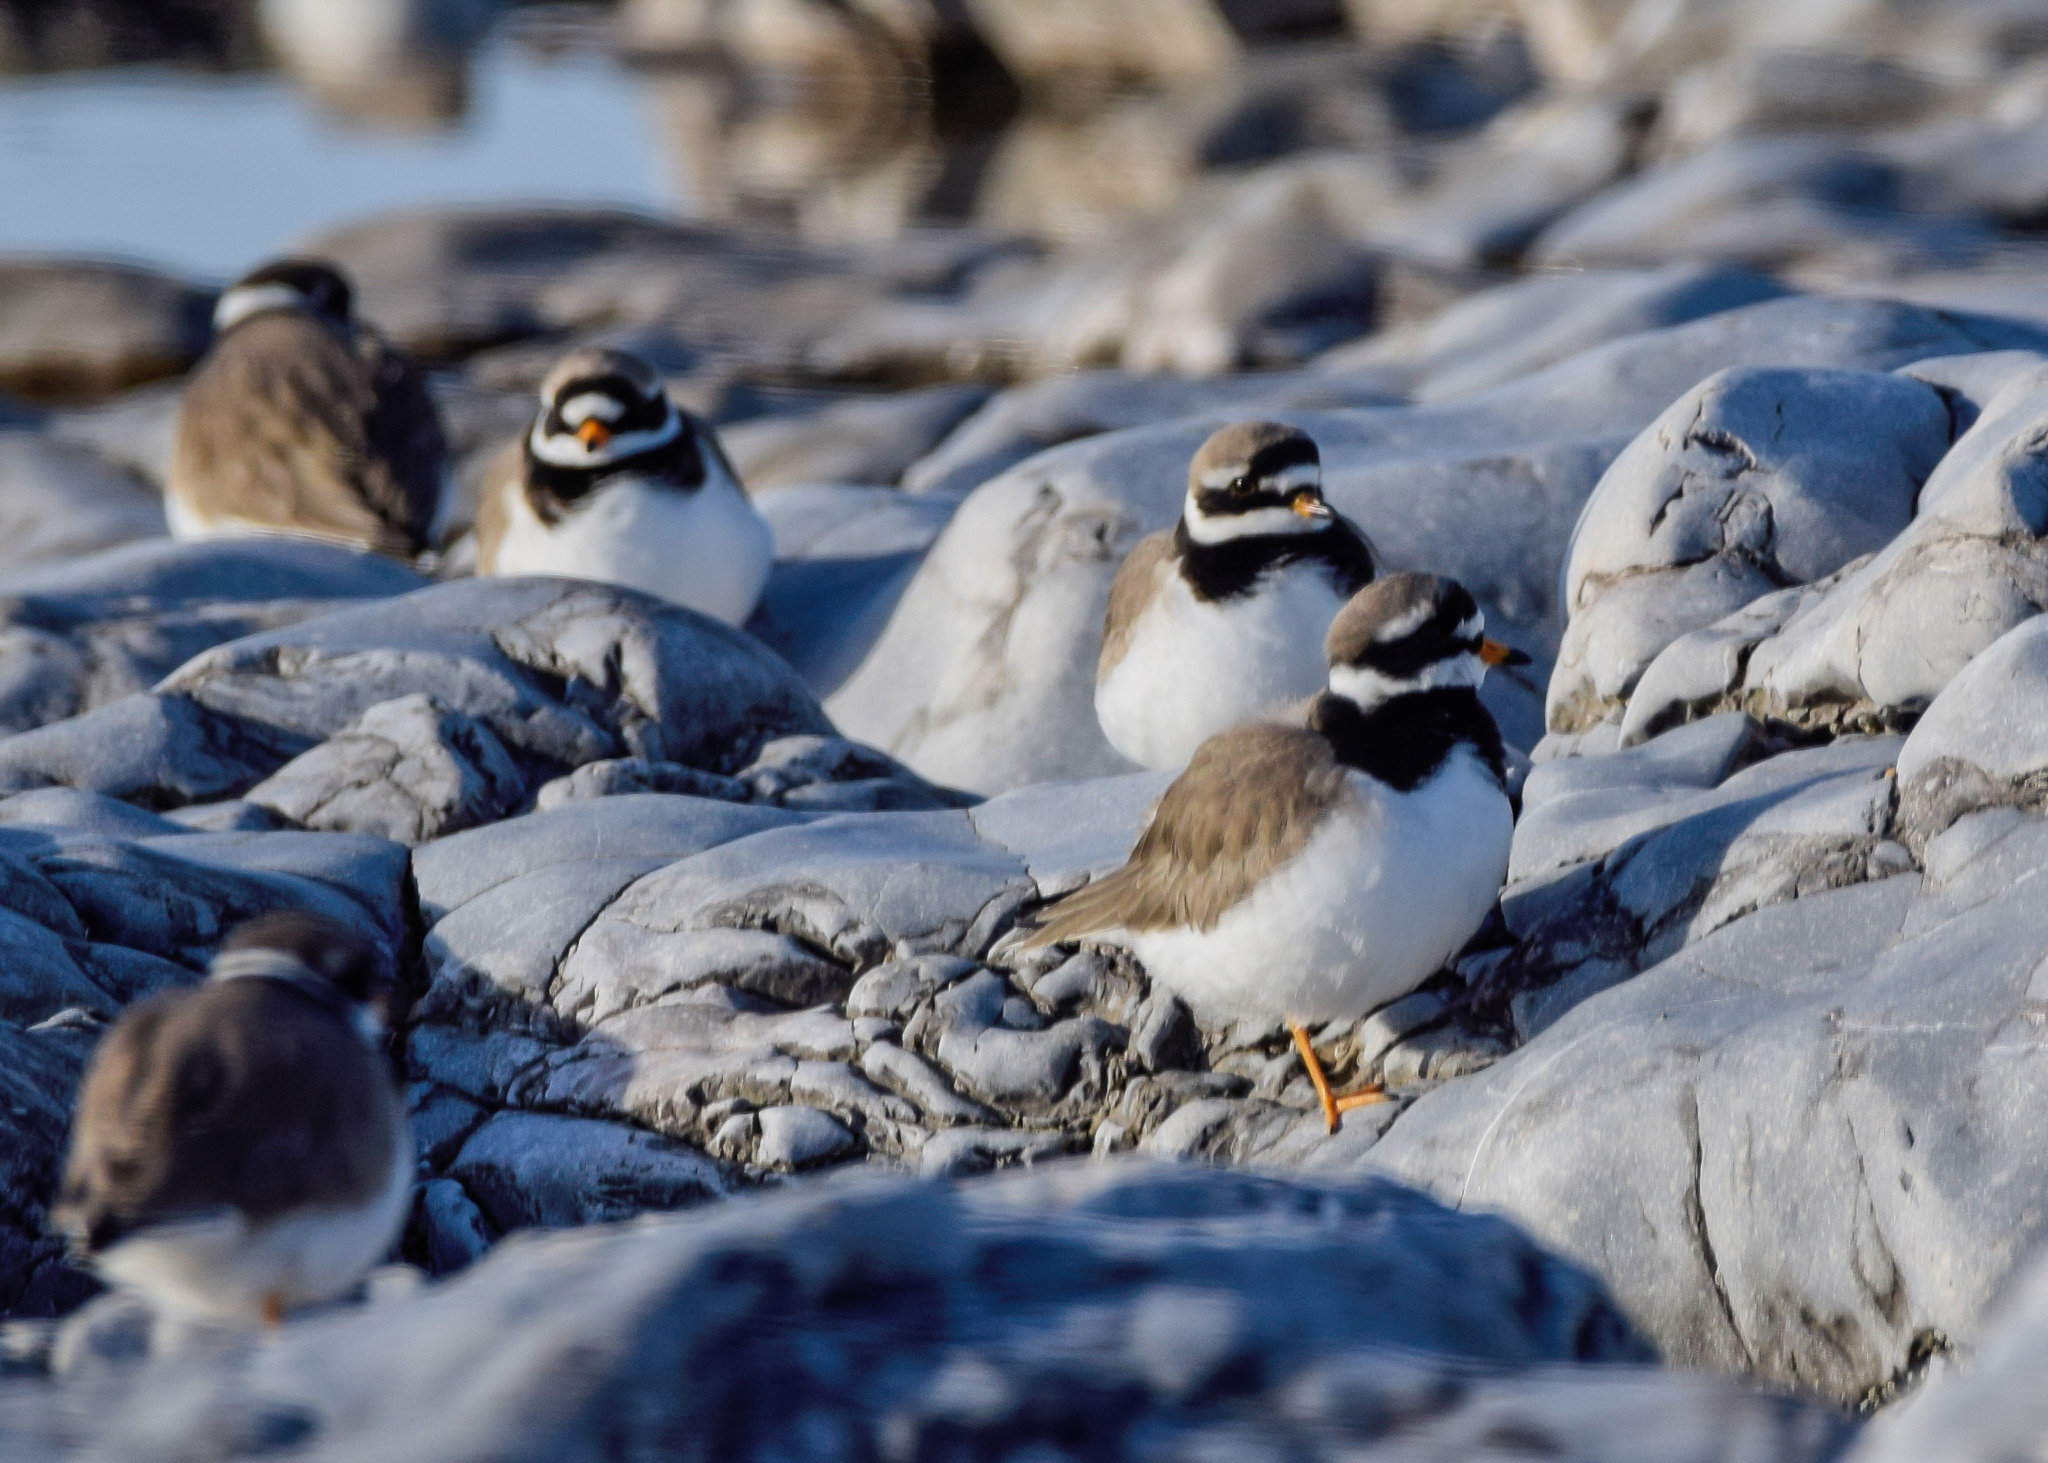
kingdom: Animalia
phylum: Chordata
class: Aves
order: Charadriiformes
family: Charadriidae
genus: Charadrius
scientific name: Charadrius hiaticula
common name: Common ringed plover
